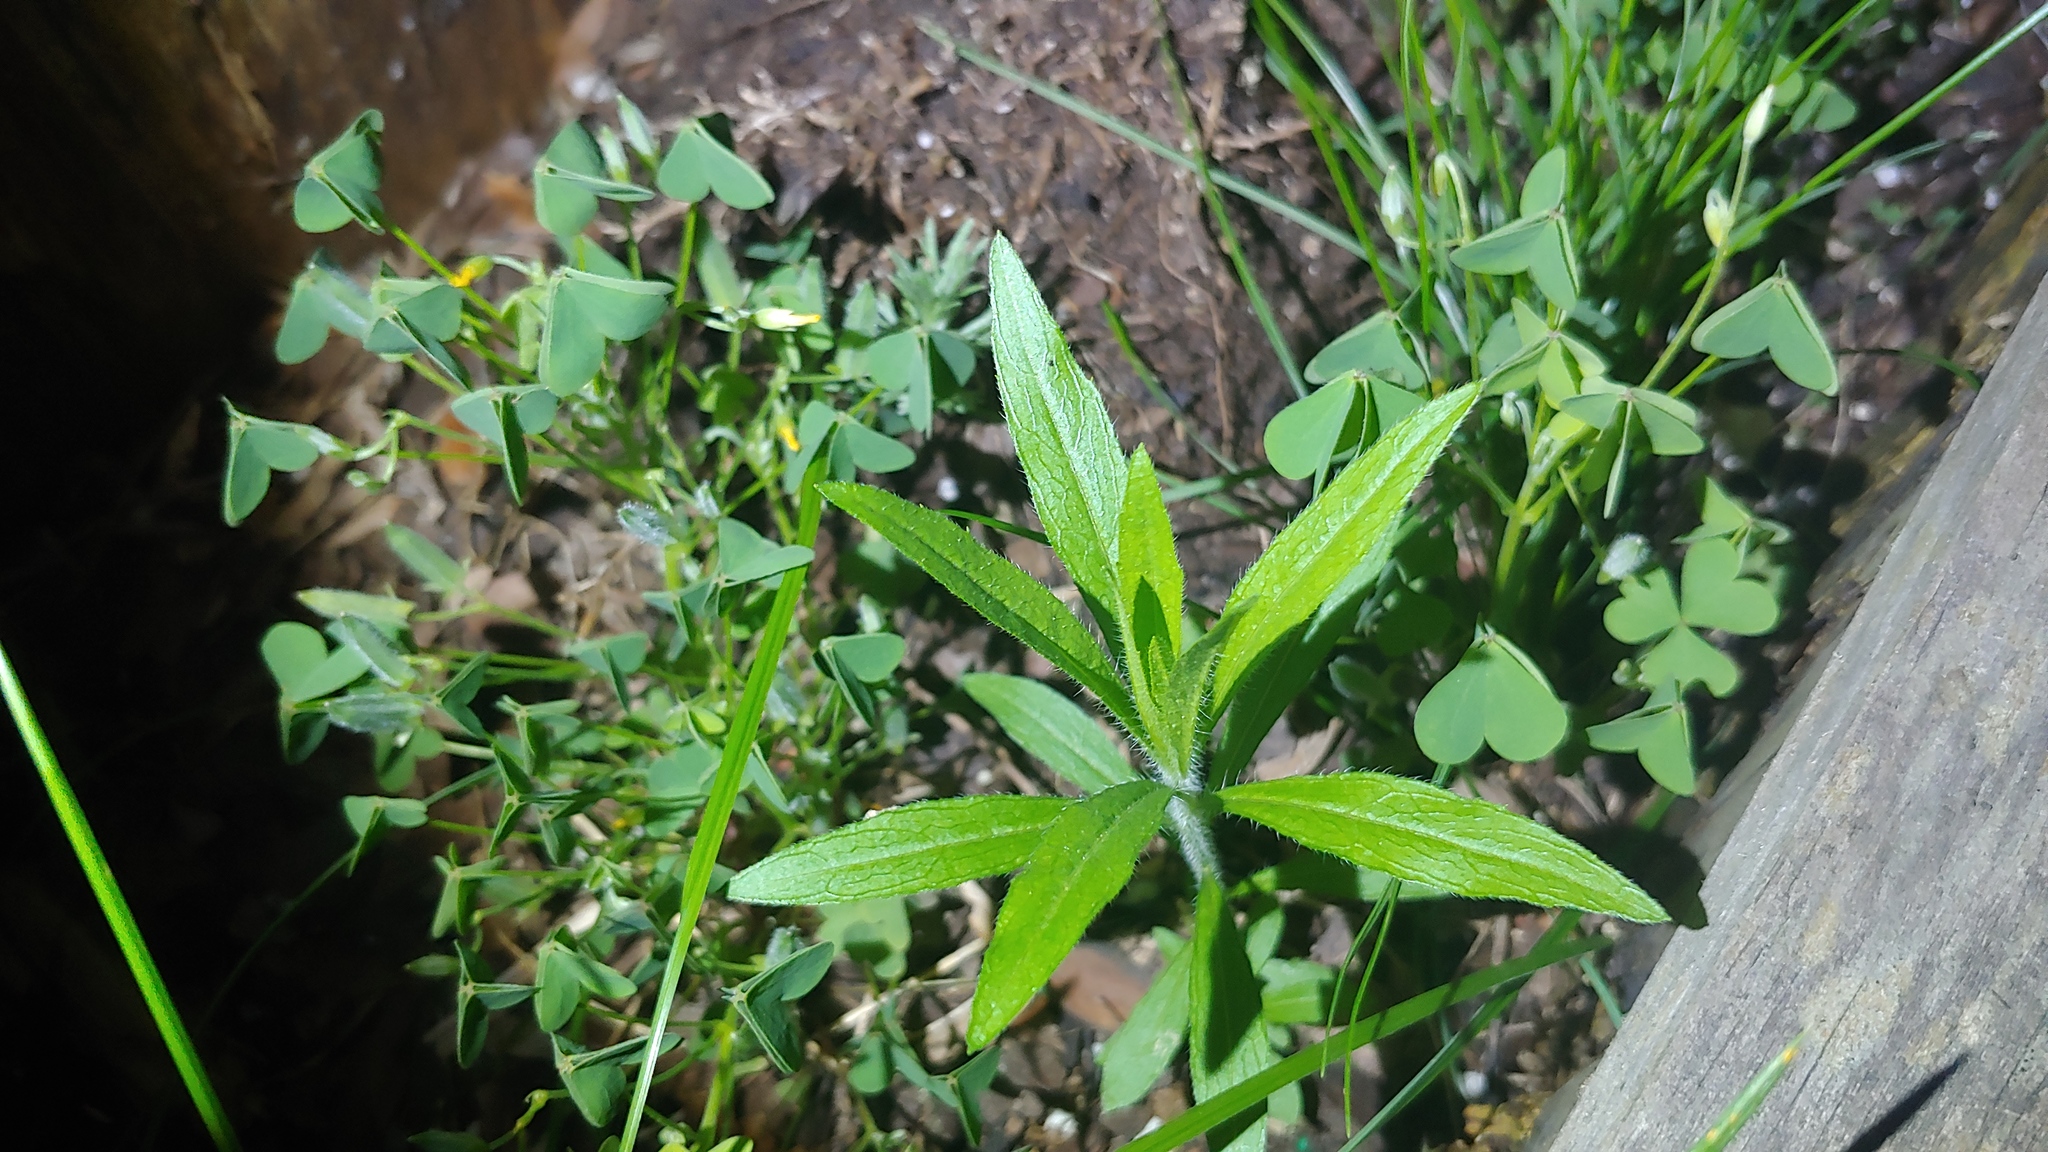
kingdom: Plantae
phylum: Tracheophyta
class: Magnoliopsida
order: Asterales
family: Asteraceae
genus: Erigeron
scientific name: Erigeron canadensis
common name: Canadian fleabane
